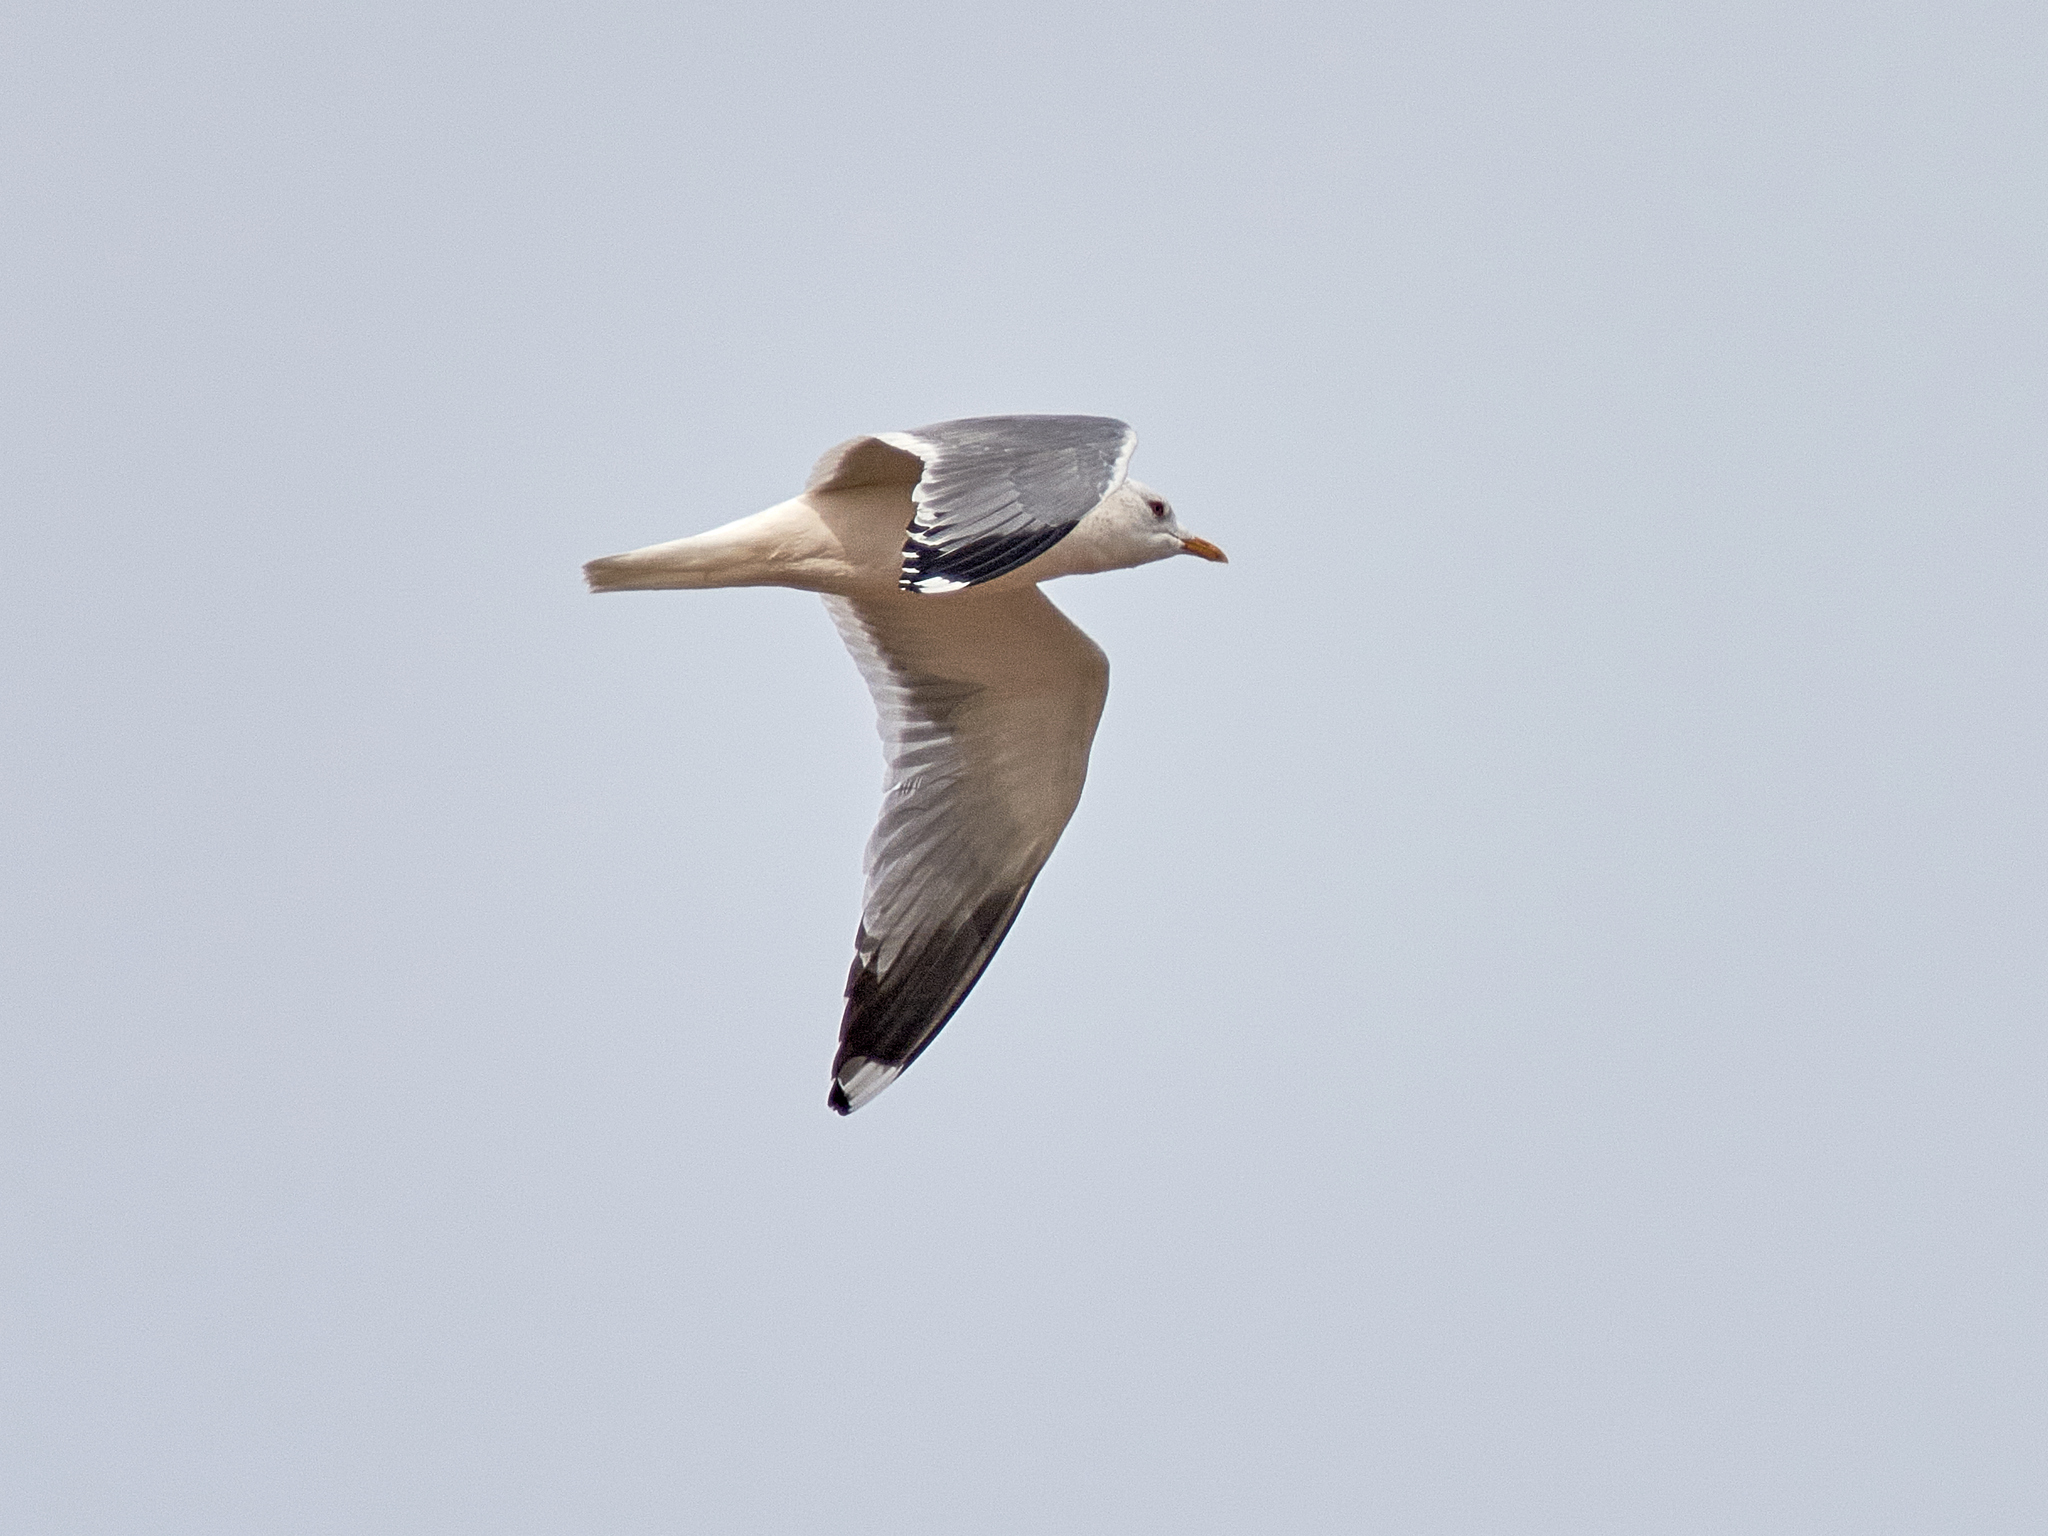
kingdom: Animalia
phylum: Chordata
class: Aves
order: Charadriiformes
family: Laridae
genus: Larus
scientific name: Larus canus
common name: Mew gull
